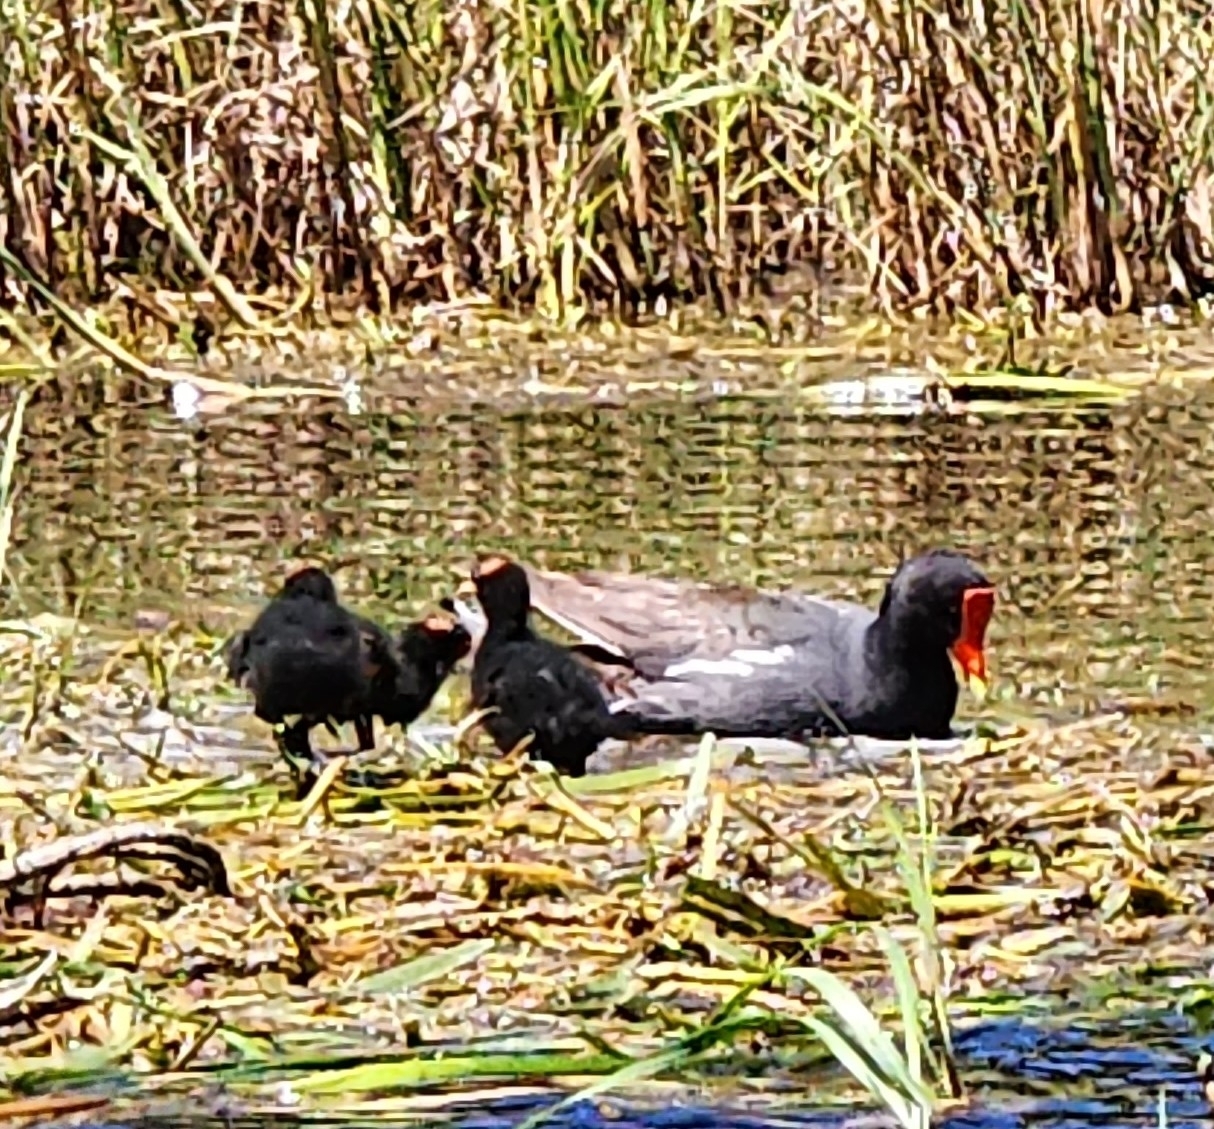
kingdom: Animalia
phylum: Chordata
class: Aves
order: Gruiformes
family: Rallidae
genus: Gallinula
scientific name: Gallinula chloropus
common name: Common moorhen
